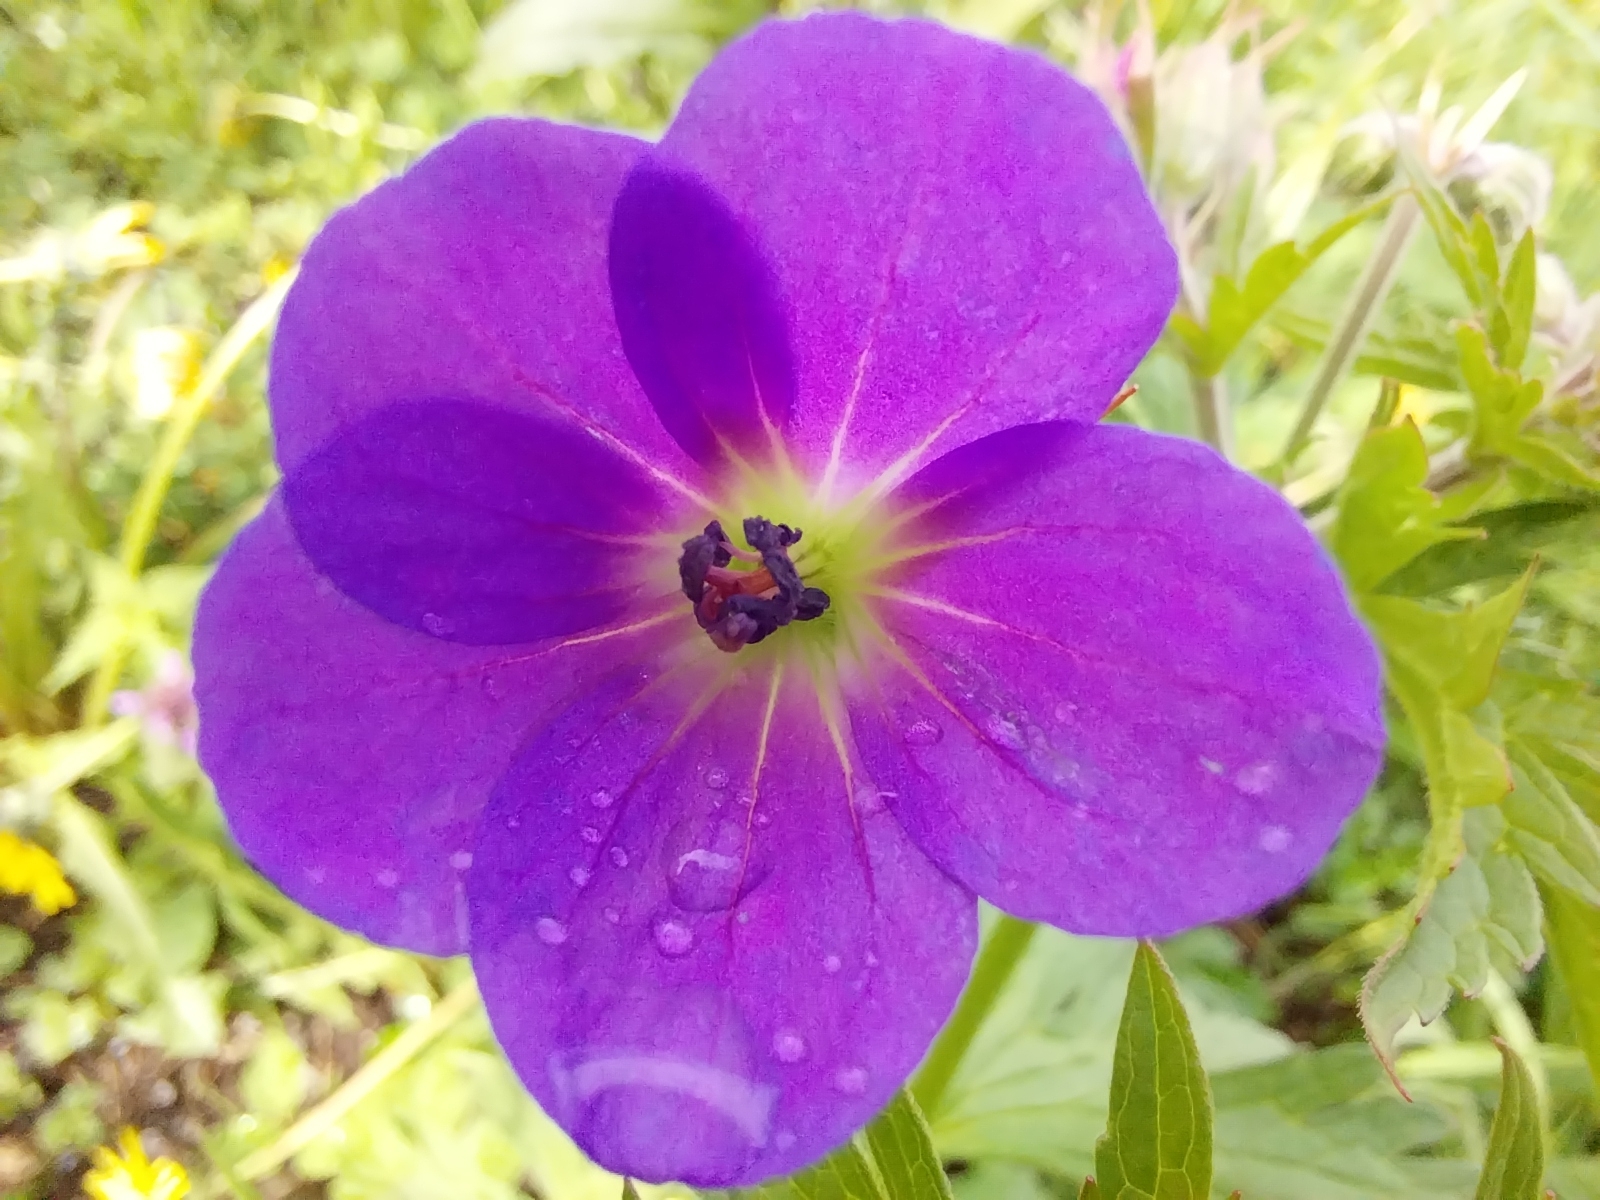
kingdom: Plantae
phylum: Tracheophyta
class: Magnoliopsida
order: Geraniales
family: Geraniaceae
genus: Geranium
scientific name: Geranium sylvaticum
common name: Wood crane's-bill
